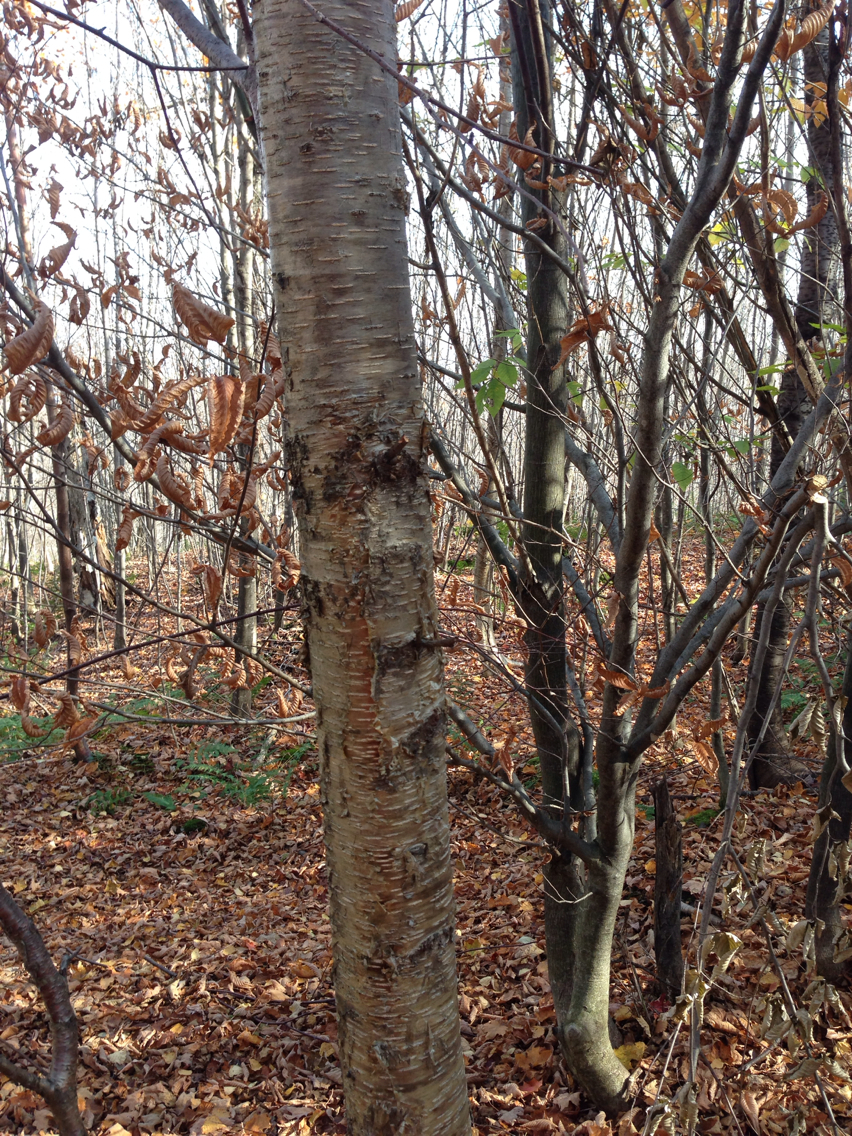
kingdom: Plantae
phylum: Tracheophyta
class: Magnoliopsida
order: Fagales
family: Betulaceae
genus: Betula
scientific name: Betula alleghaniensis
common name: Yellow birch
